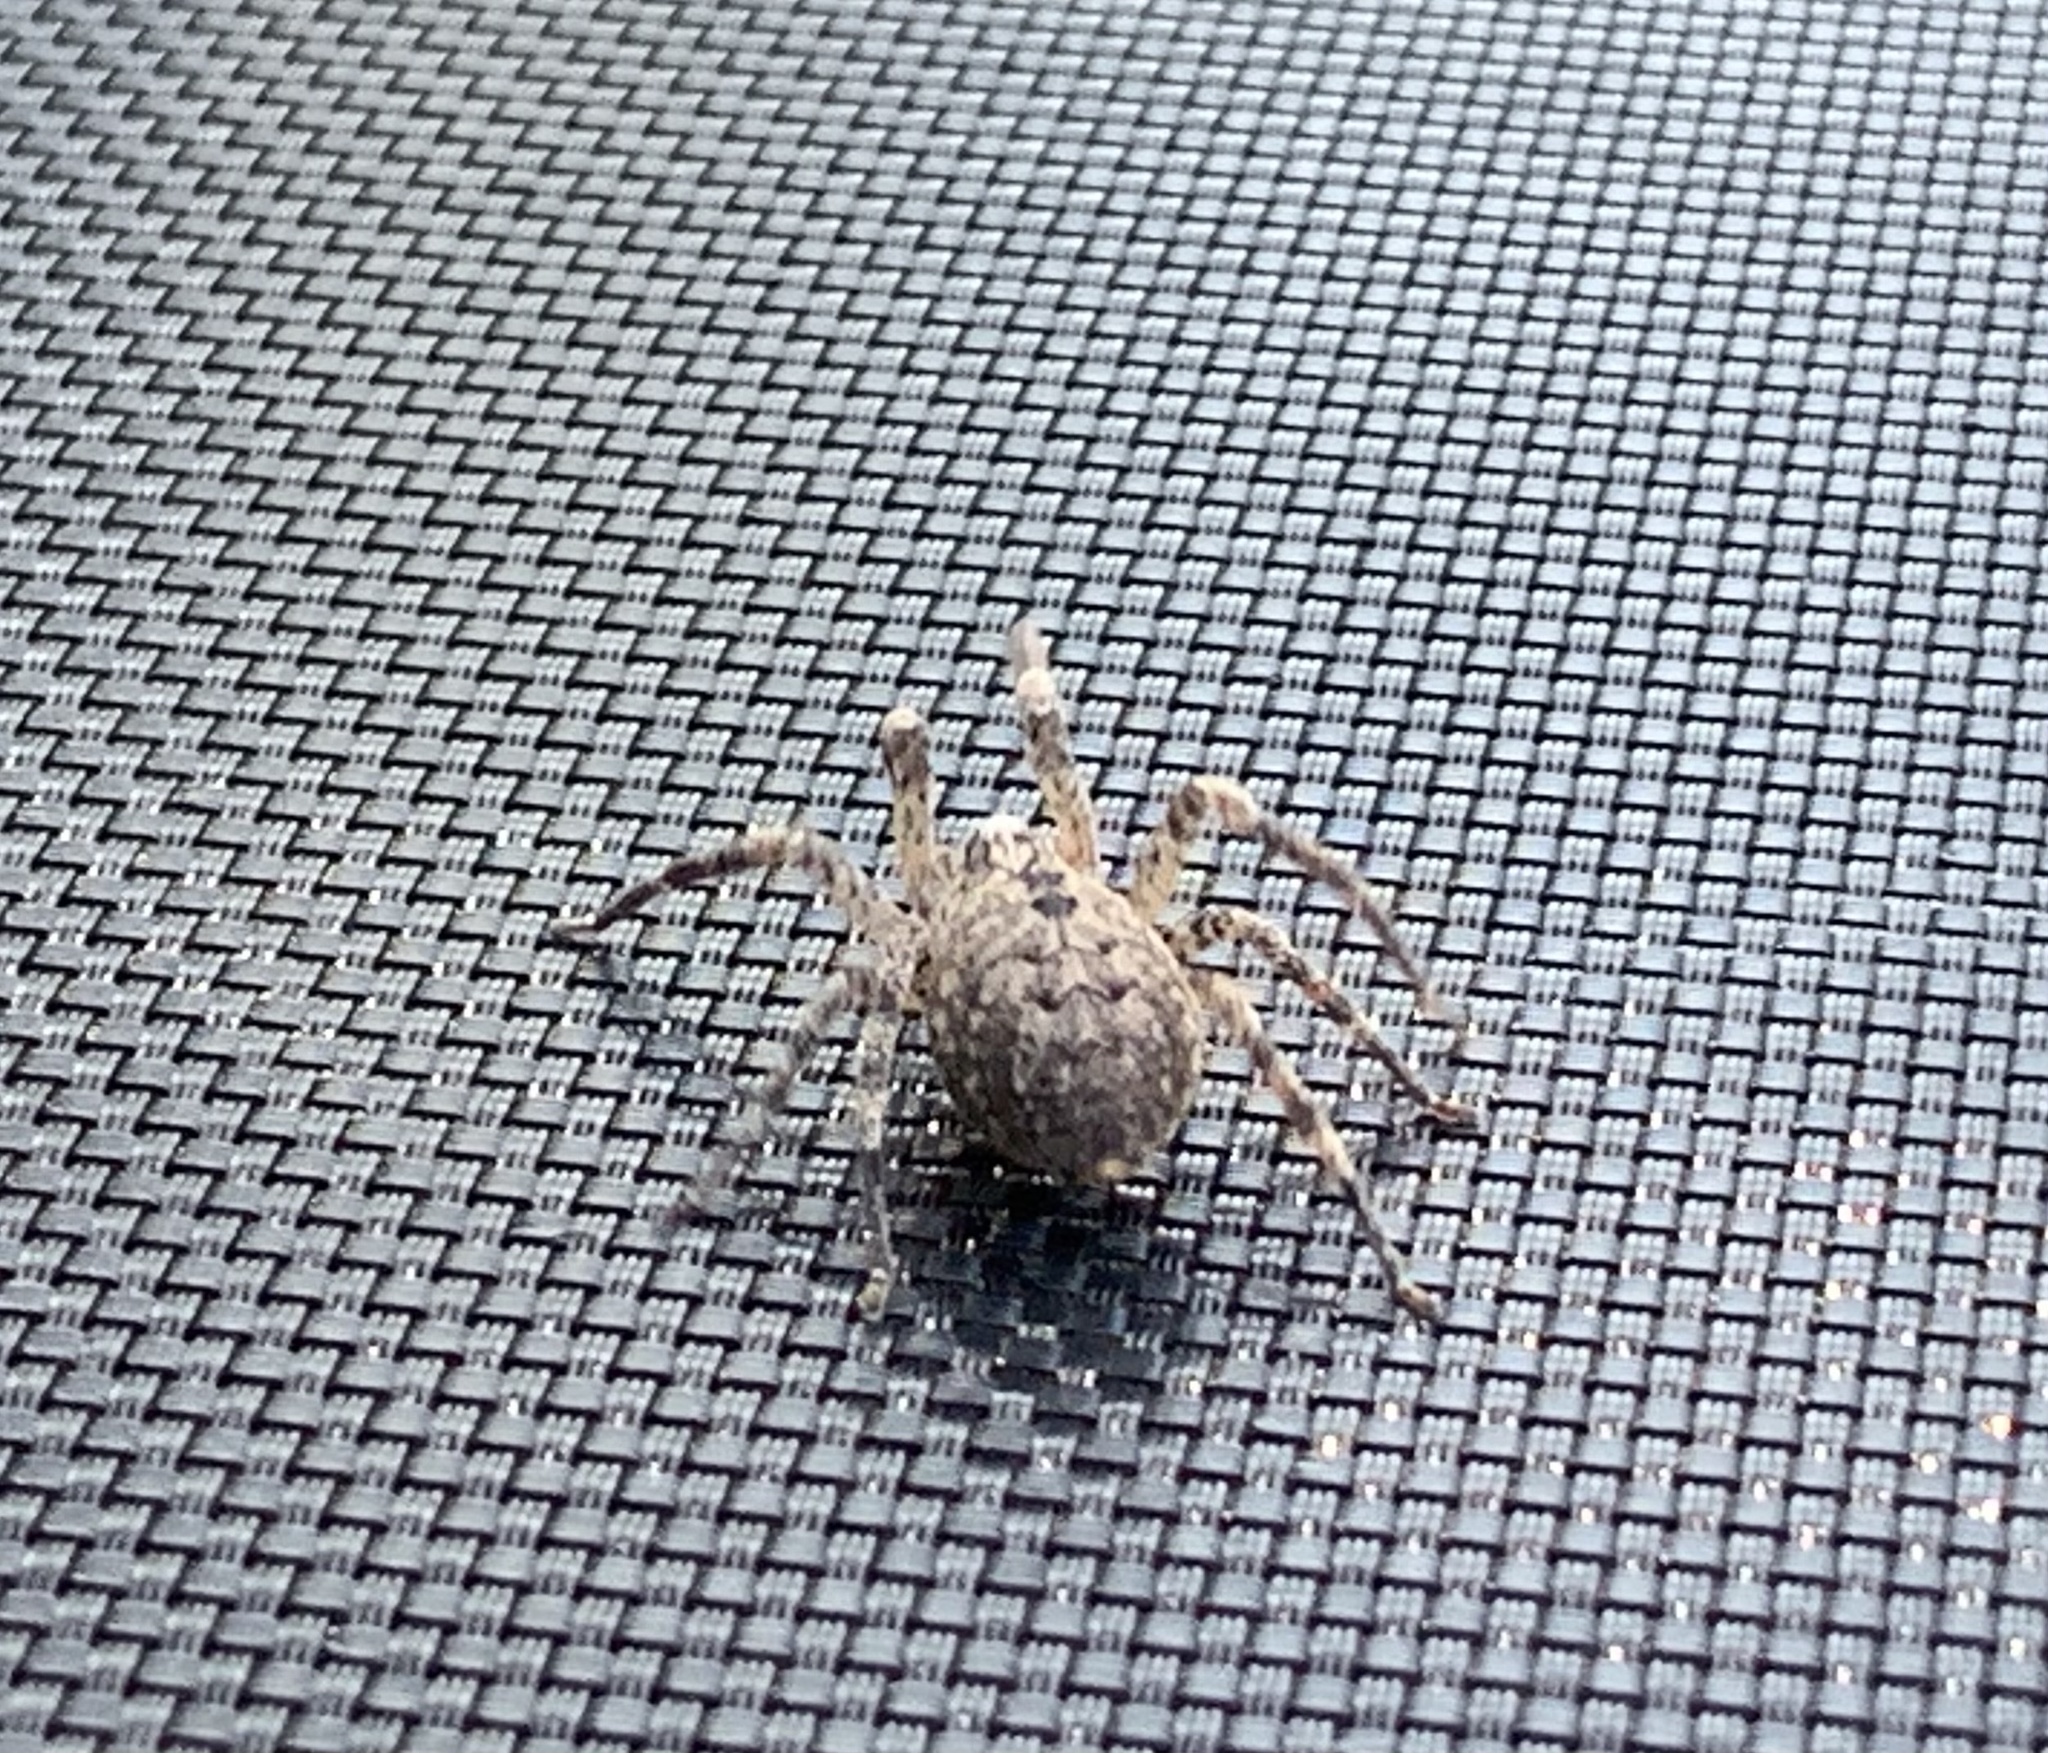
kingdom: Animalia
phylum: Arthropoda
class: Arachnida
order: Araneae
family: Zoropsidae
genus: Zoropsis
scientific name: Zoropsis spinimana
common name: Zoropsid spider
